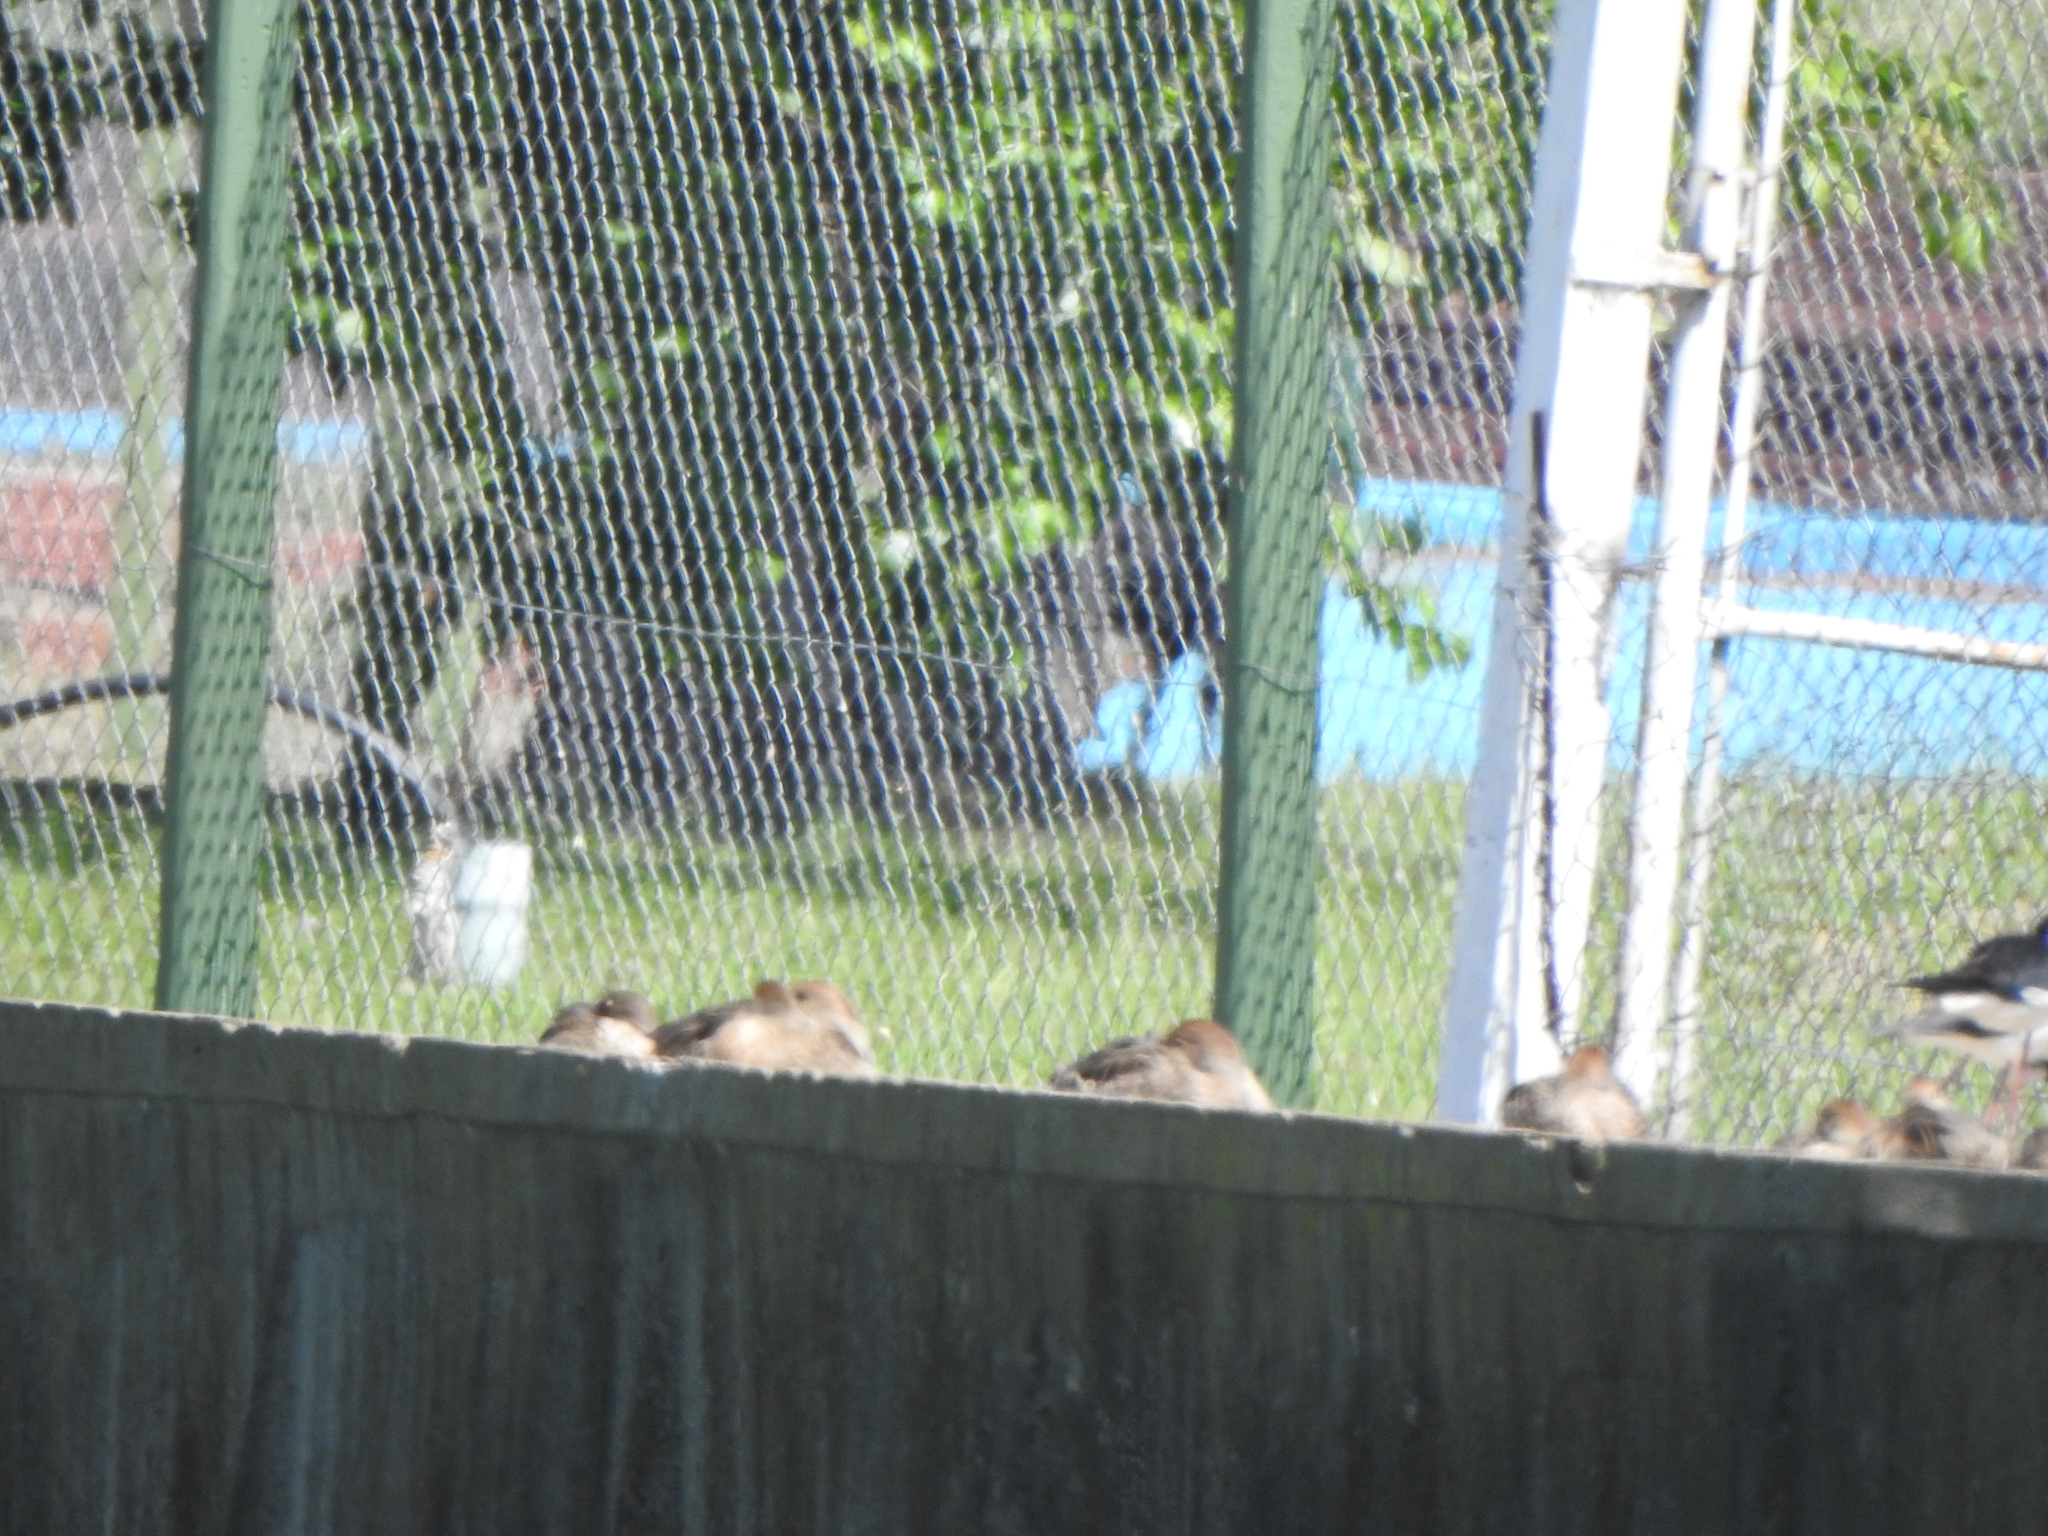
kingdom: Animalia
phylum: Chordata
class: Aves
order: Anseriformes
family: Anatidae
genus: Anas
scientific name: Anas georgica
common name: Yellow-billed pintail
